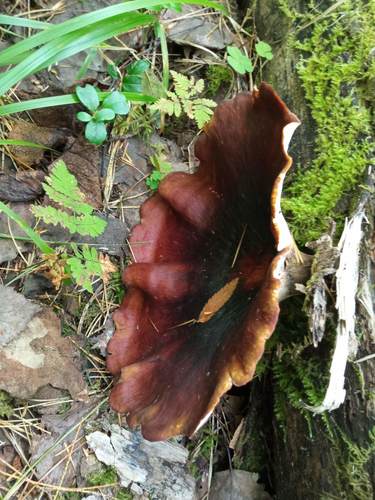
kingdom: Fungi
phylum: Basidiomycota
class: Agaricomycetes
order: Polyporales
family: Polyporaceae
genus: Picipes
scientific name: Picipes badius
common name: Bay polypore
